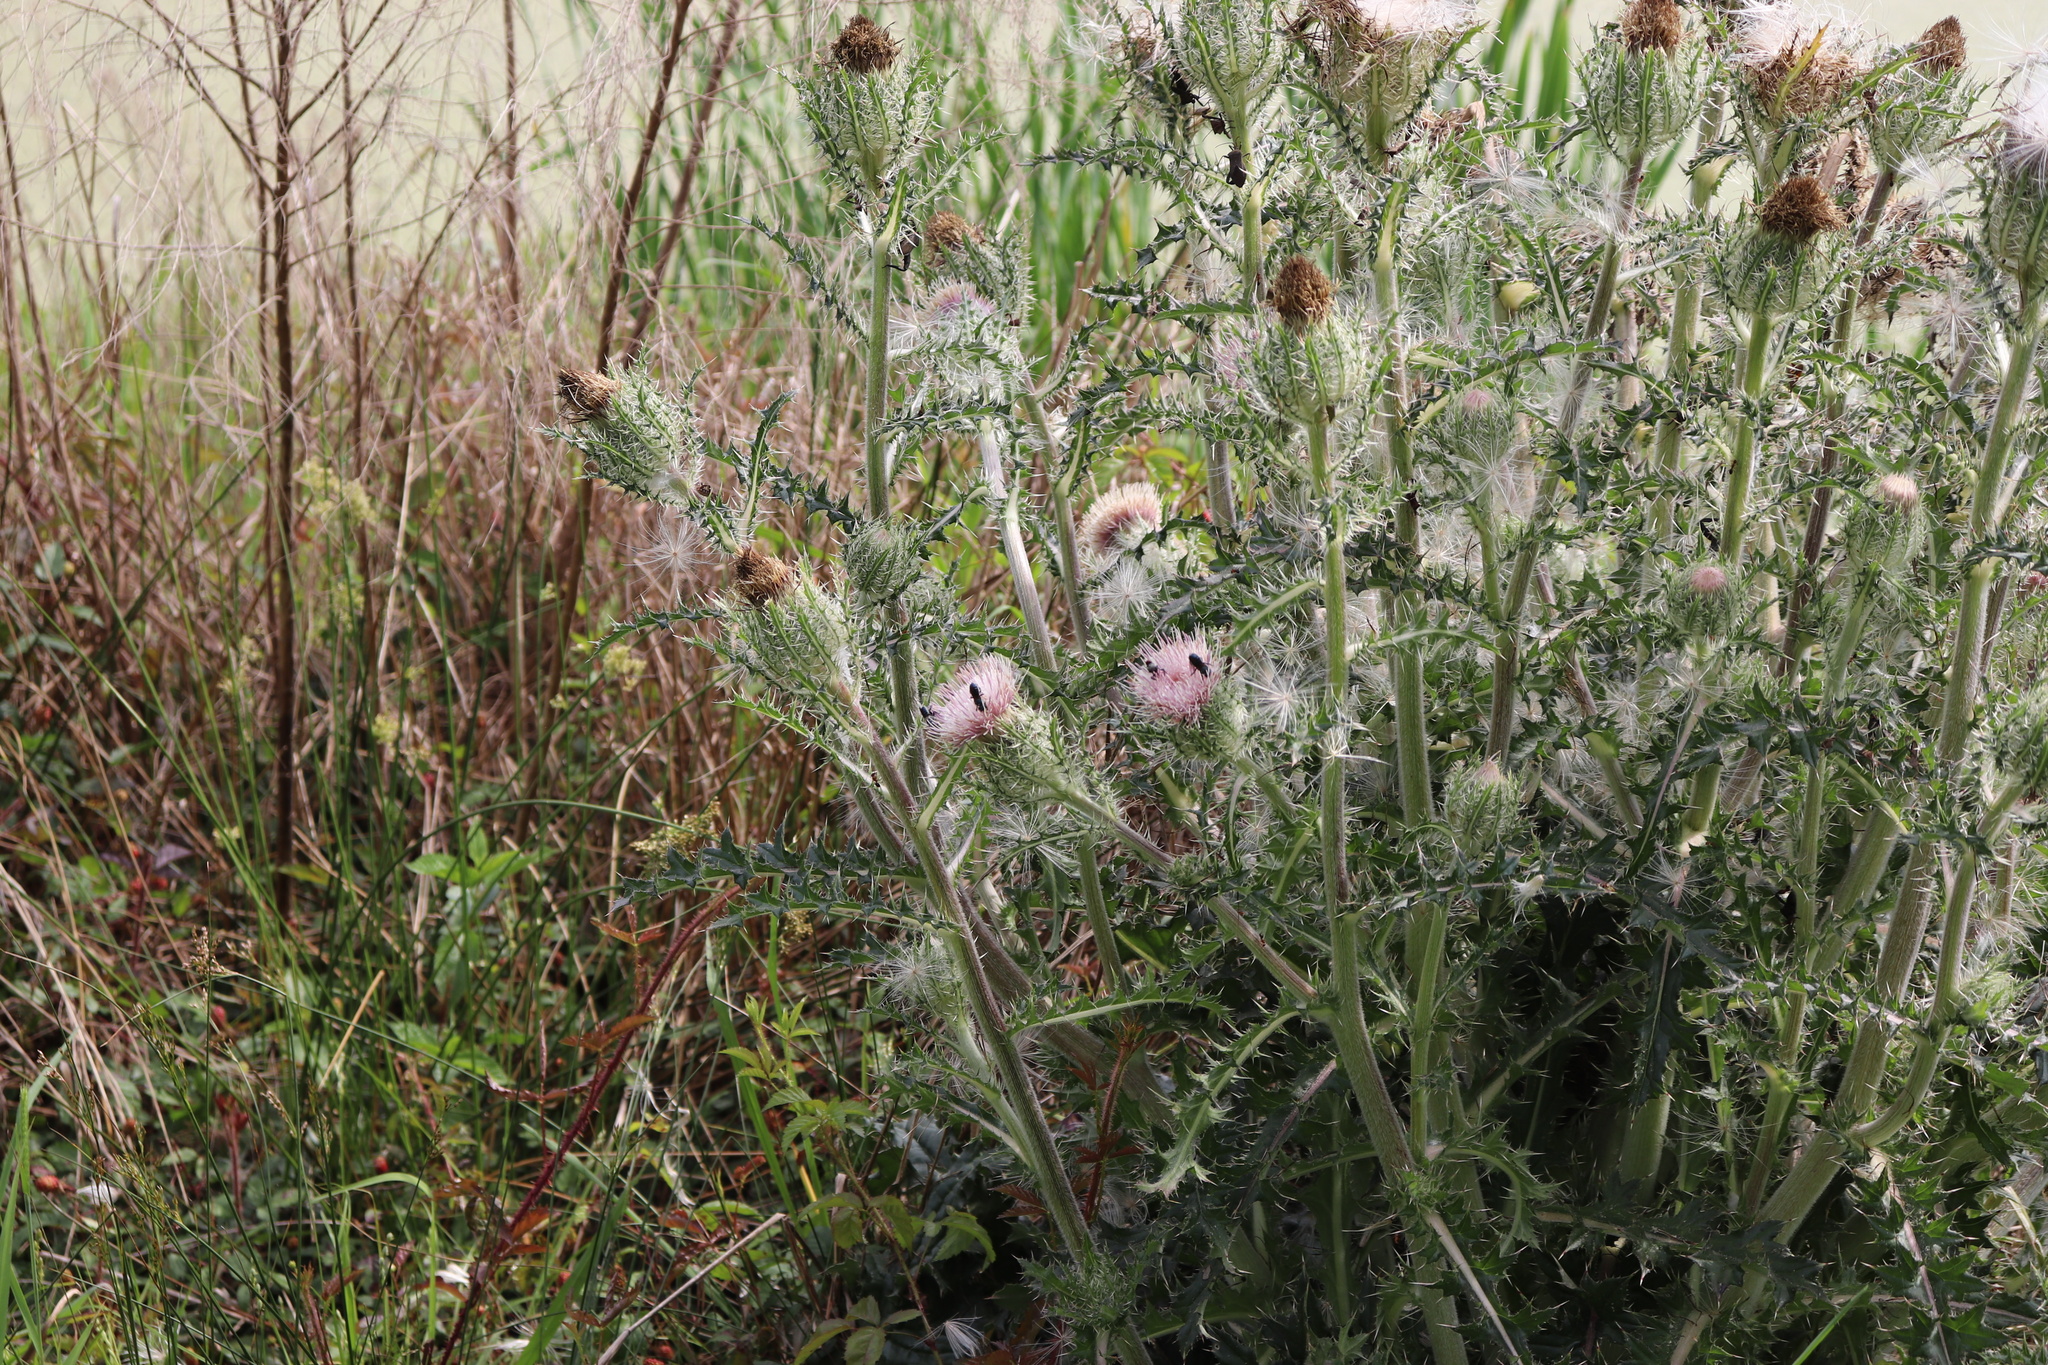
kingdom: Plantae
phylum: Tracheophyta
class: Magnoliopsida
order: Asterales
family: Asteraceae
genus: Cirsium
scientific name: Cirsium horridulum
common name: Bristly thistle
